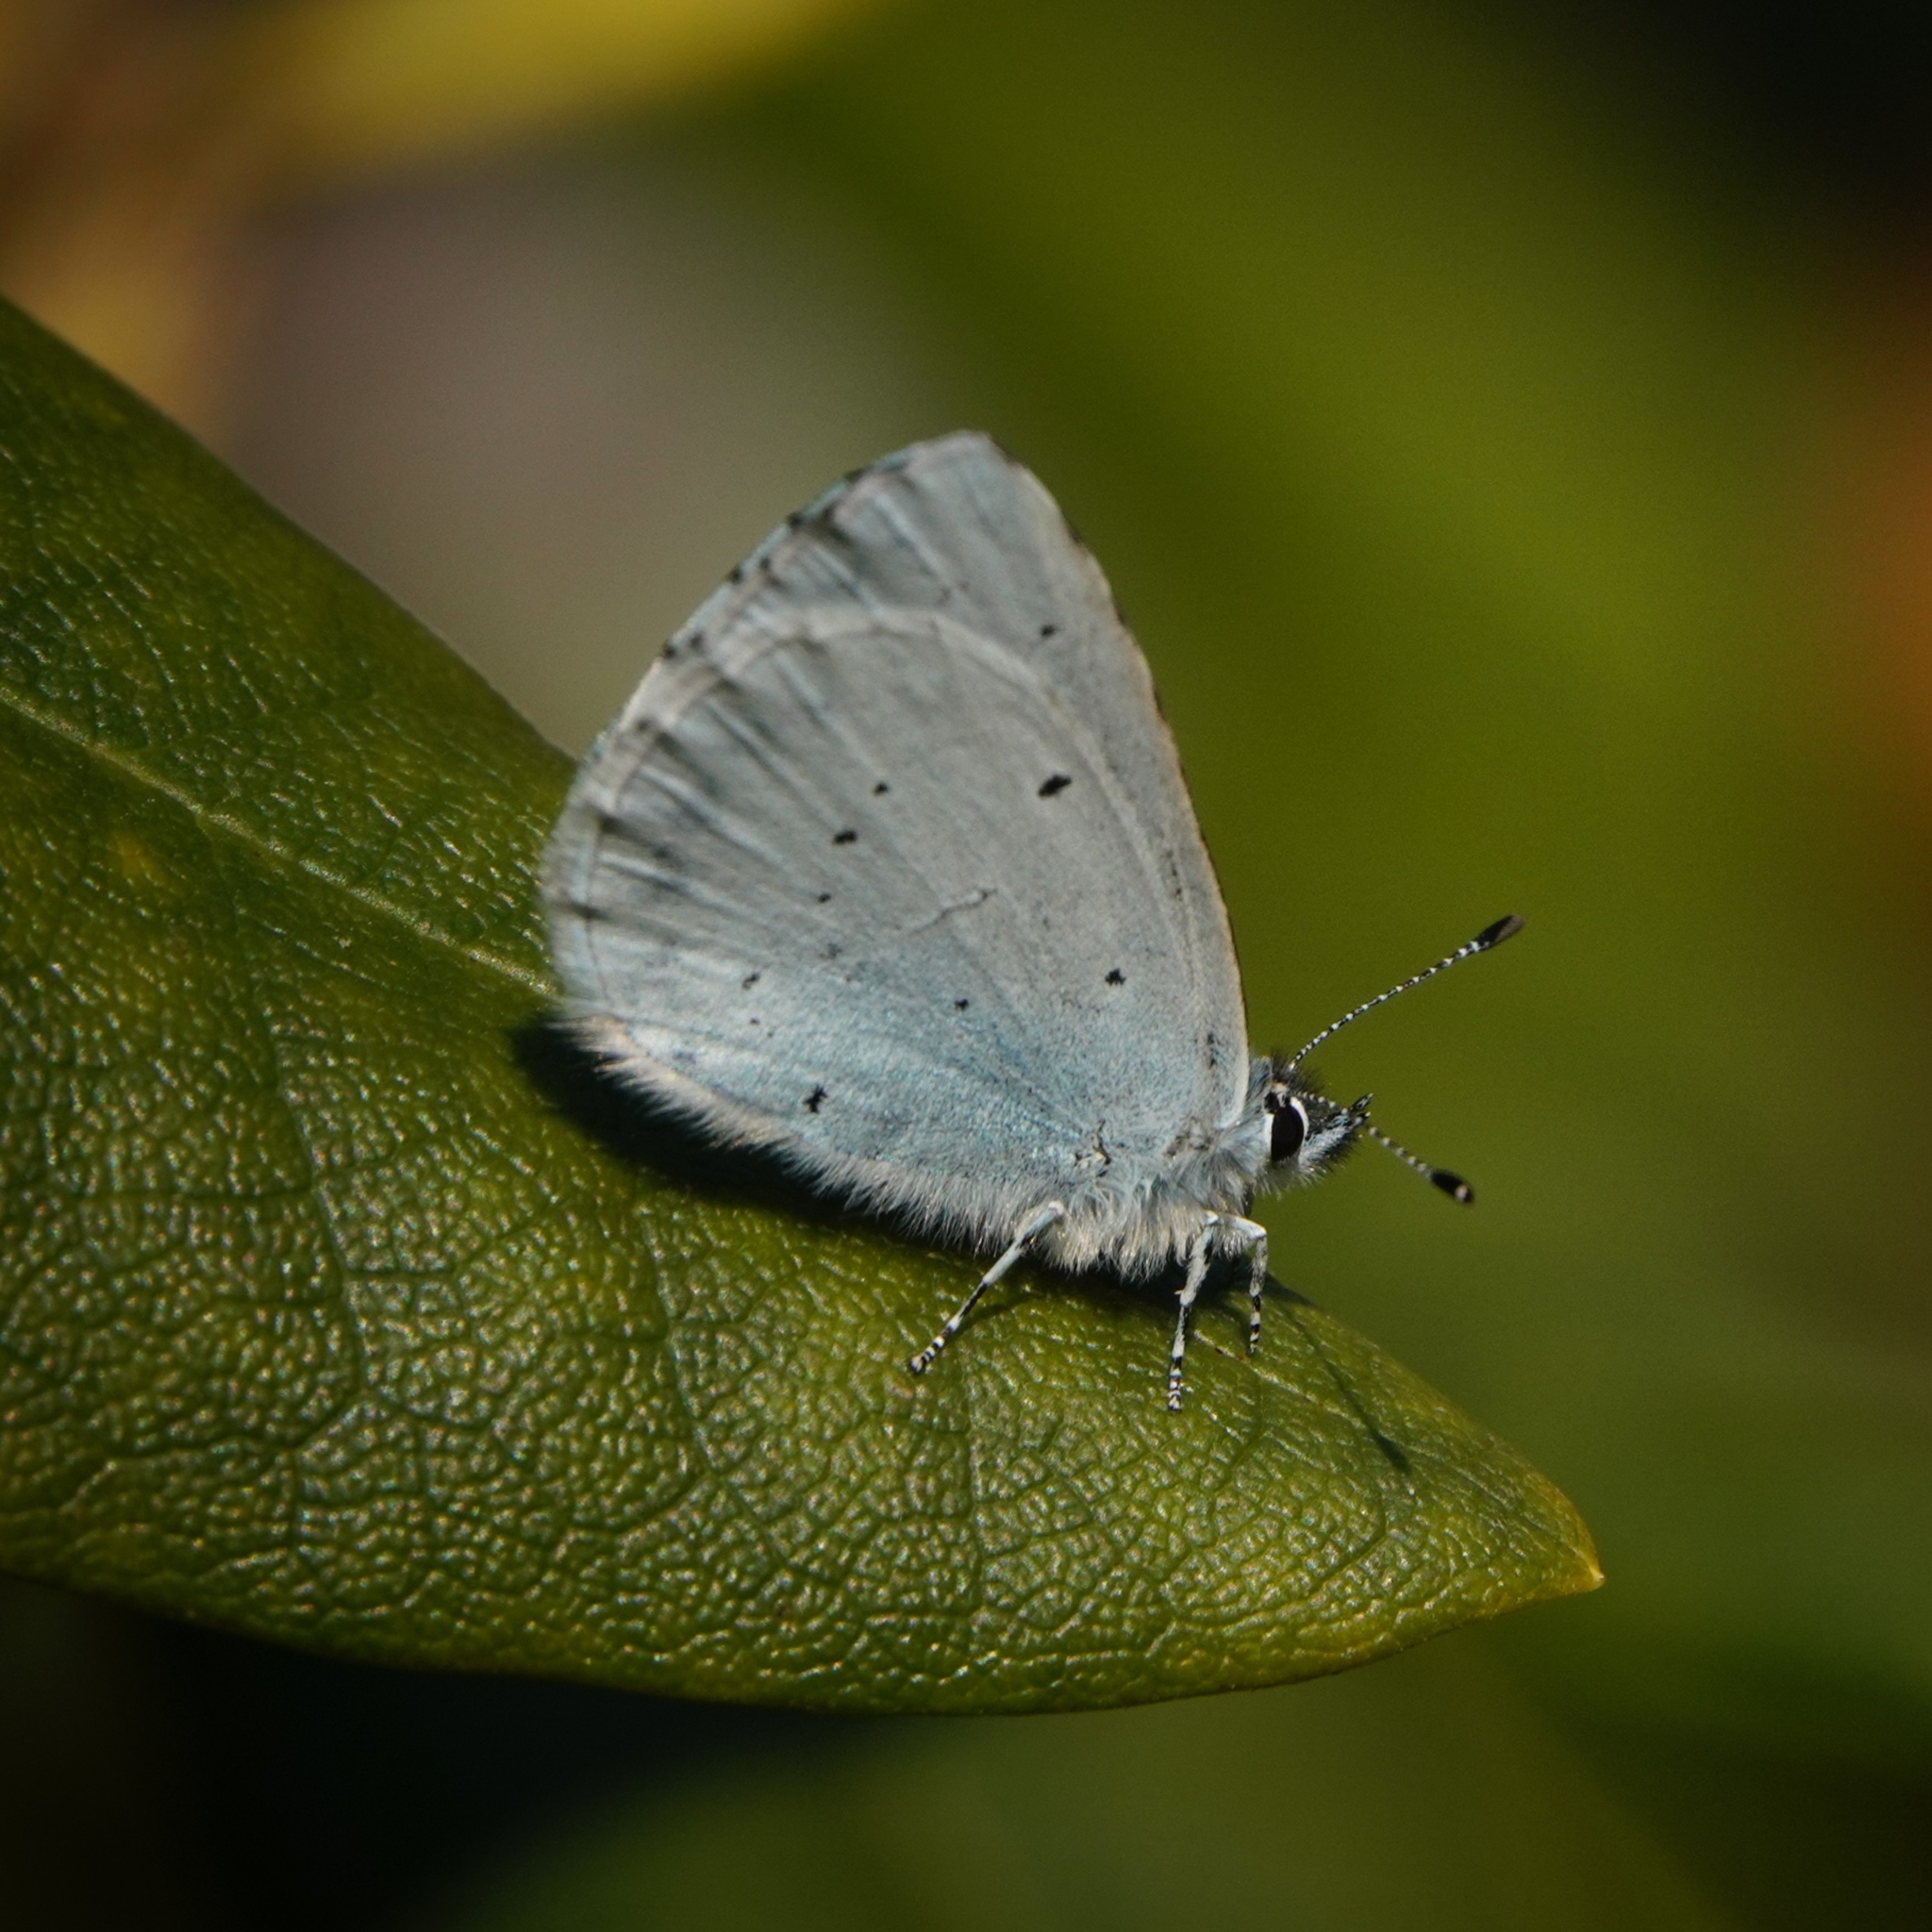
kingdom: Animalia
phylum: Arthropoda
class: Insecta
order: Lepidoptera
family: Lycaenidae
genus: Celastrina
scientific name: Celastrina argiolus
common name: Holly blue
